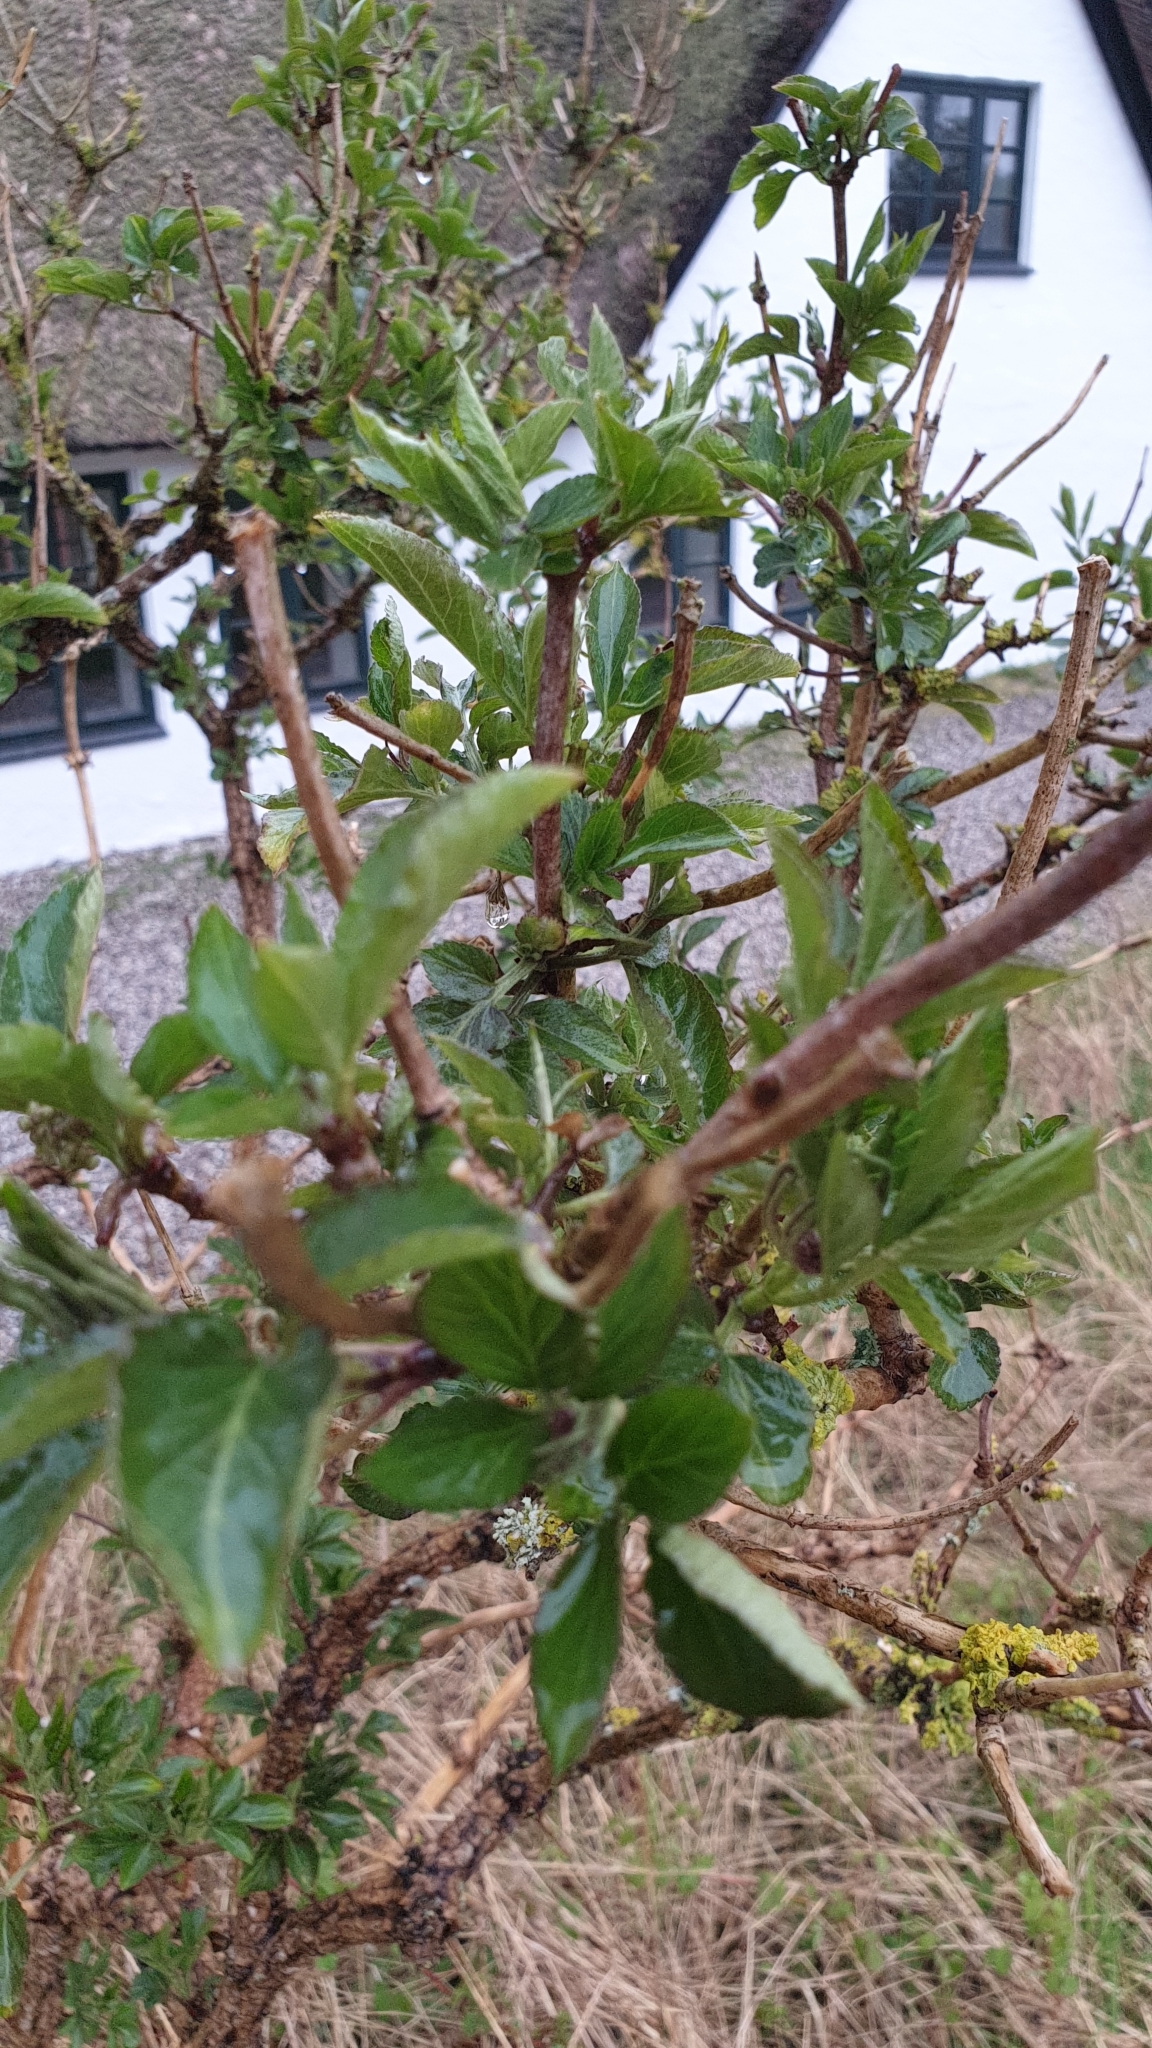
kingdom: Plantae
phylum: Tracheophyta
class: Magnoliopsida
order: Dipsacales
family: Viburnaceae
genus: Sambucus
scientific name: Sambucus nigra
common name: Elder
